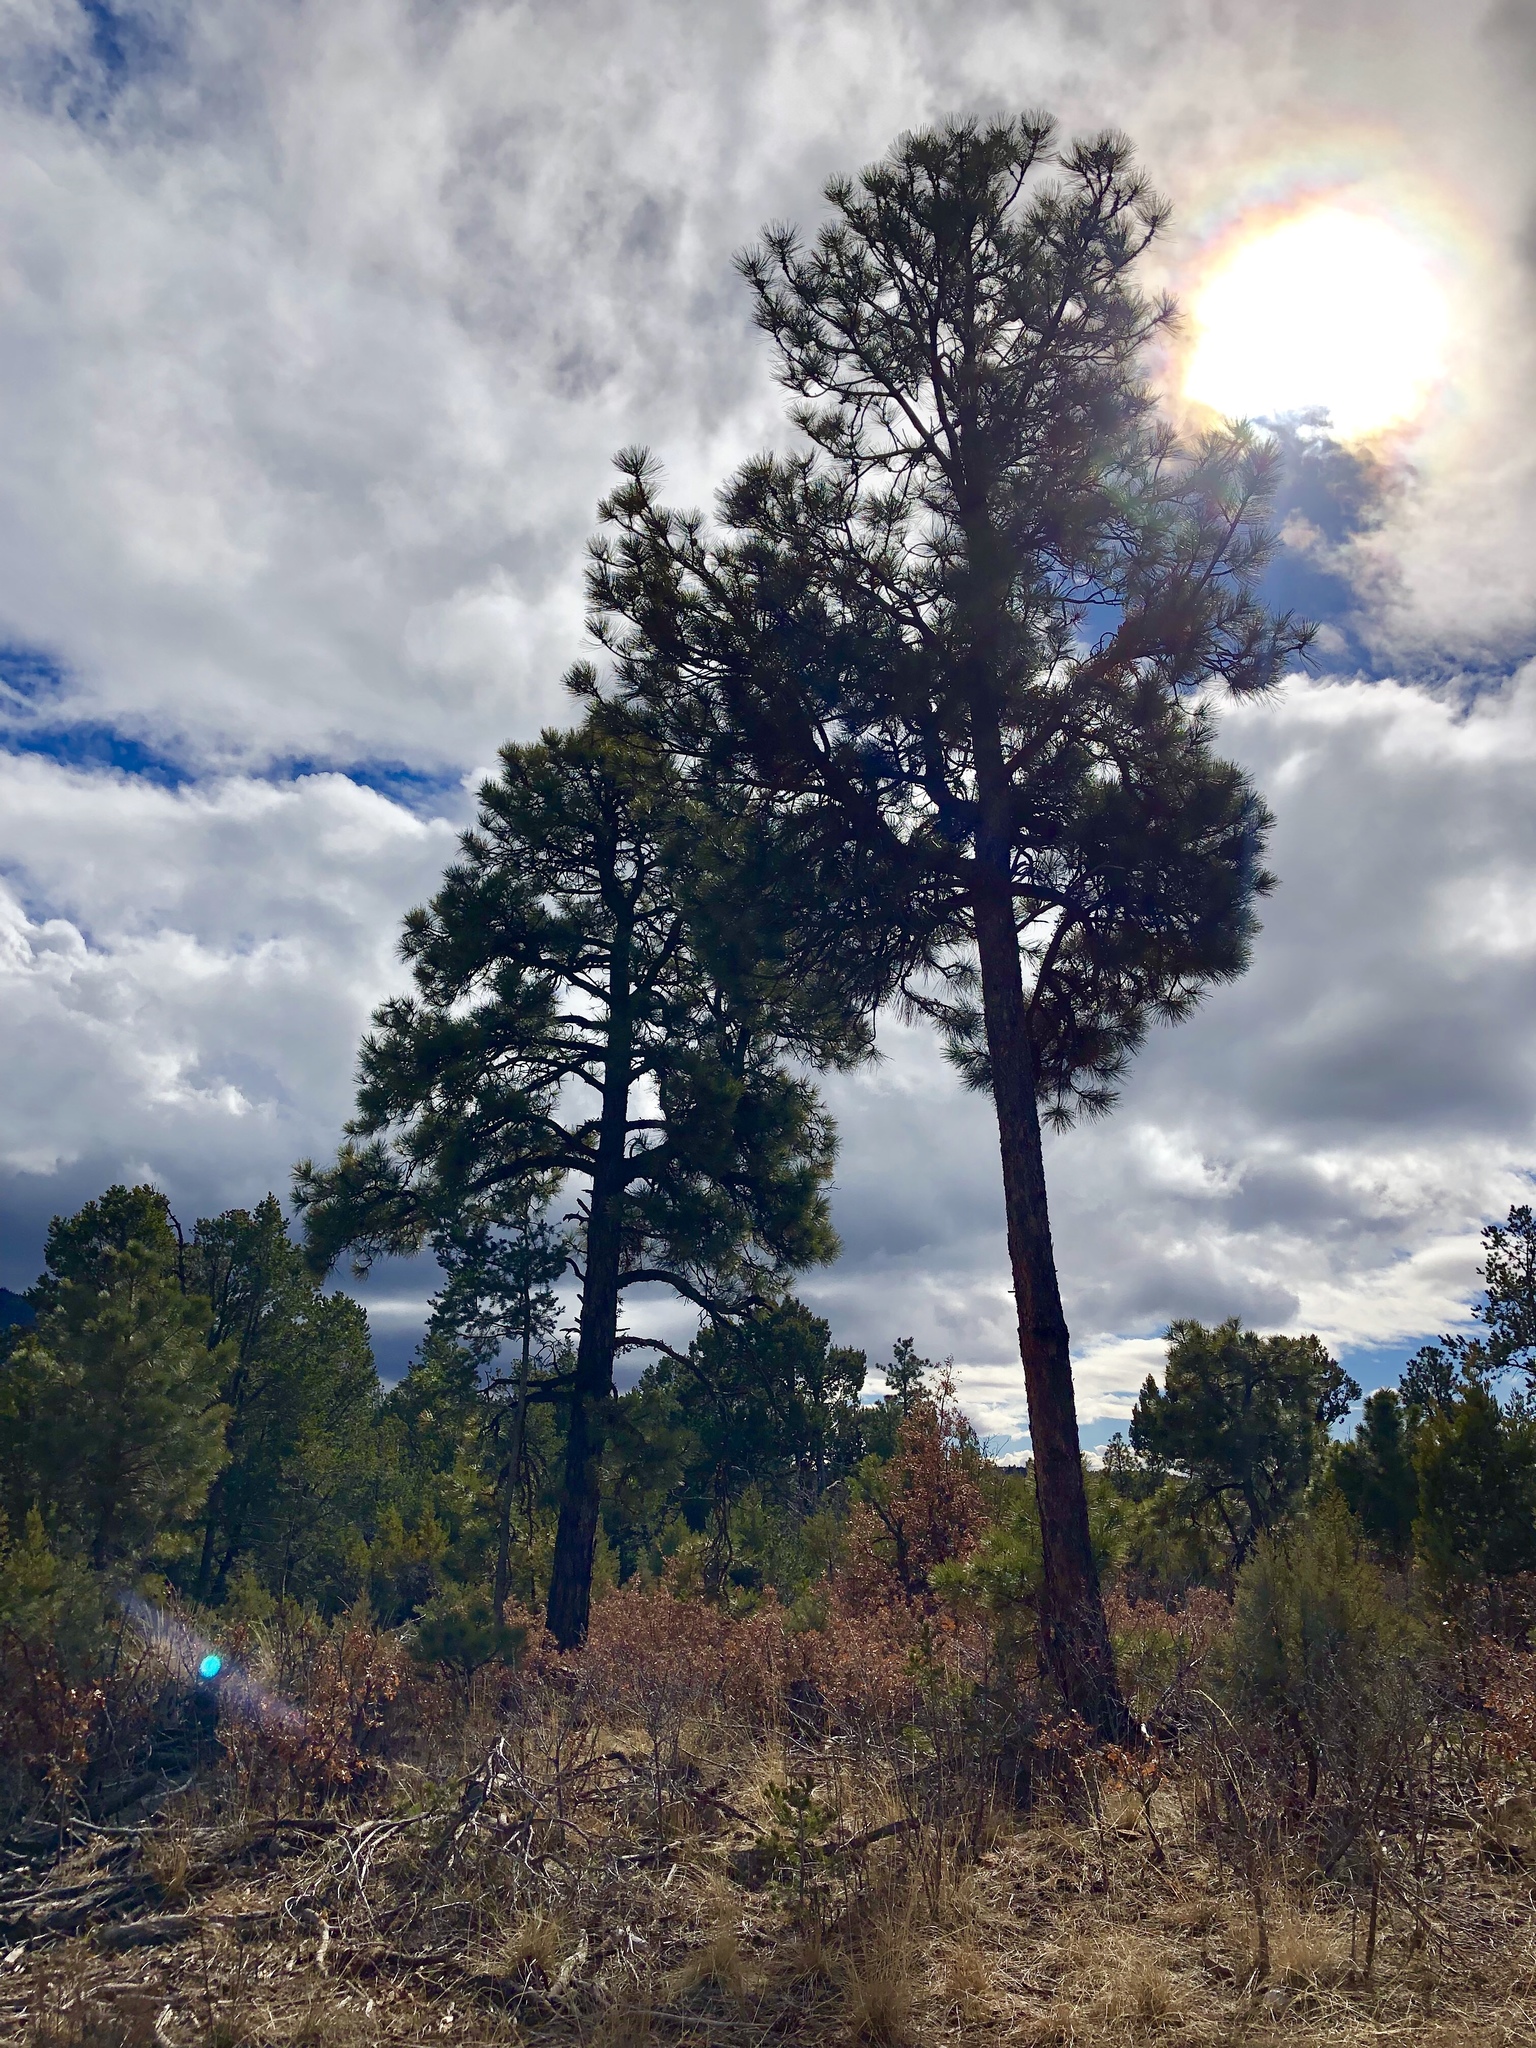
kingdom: Plantae
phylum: Tracheophyta
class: Pinopsida
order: Pinales
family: Pinaceae
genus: Pinus
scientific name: Pinus ponderosa
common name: Western yellow-pine
